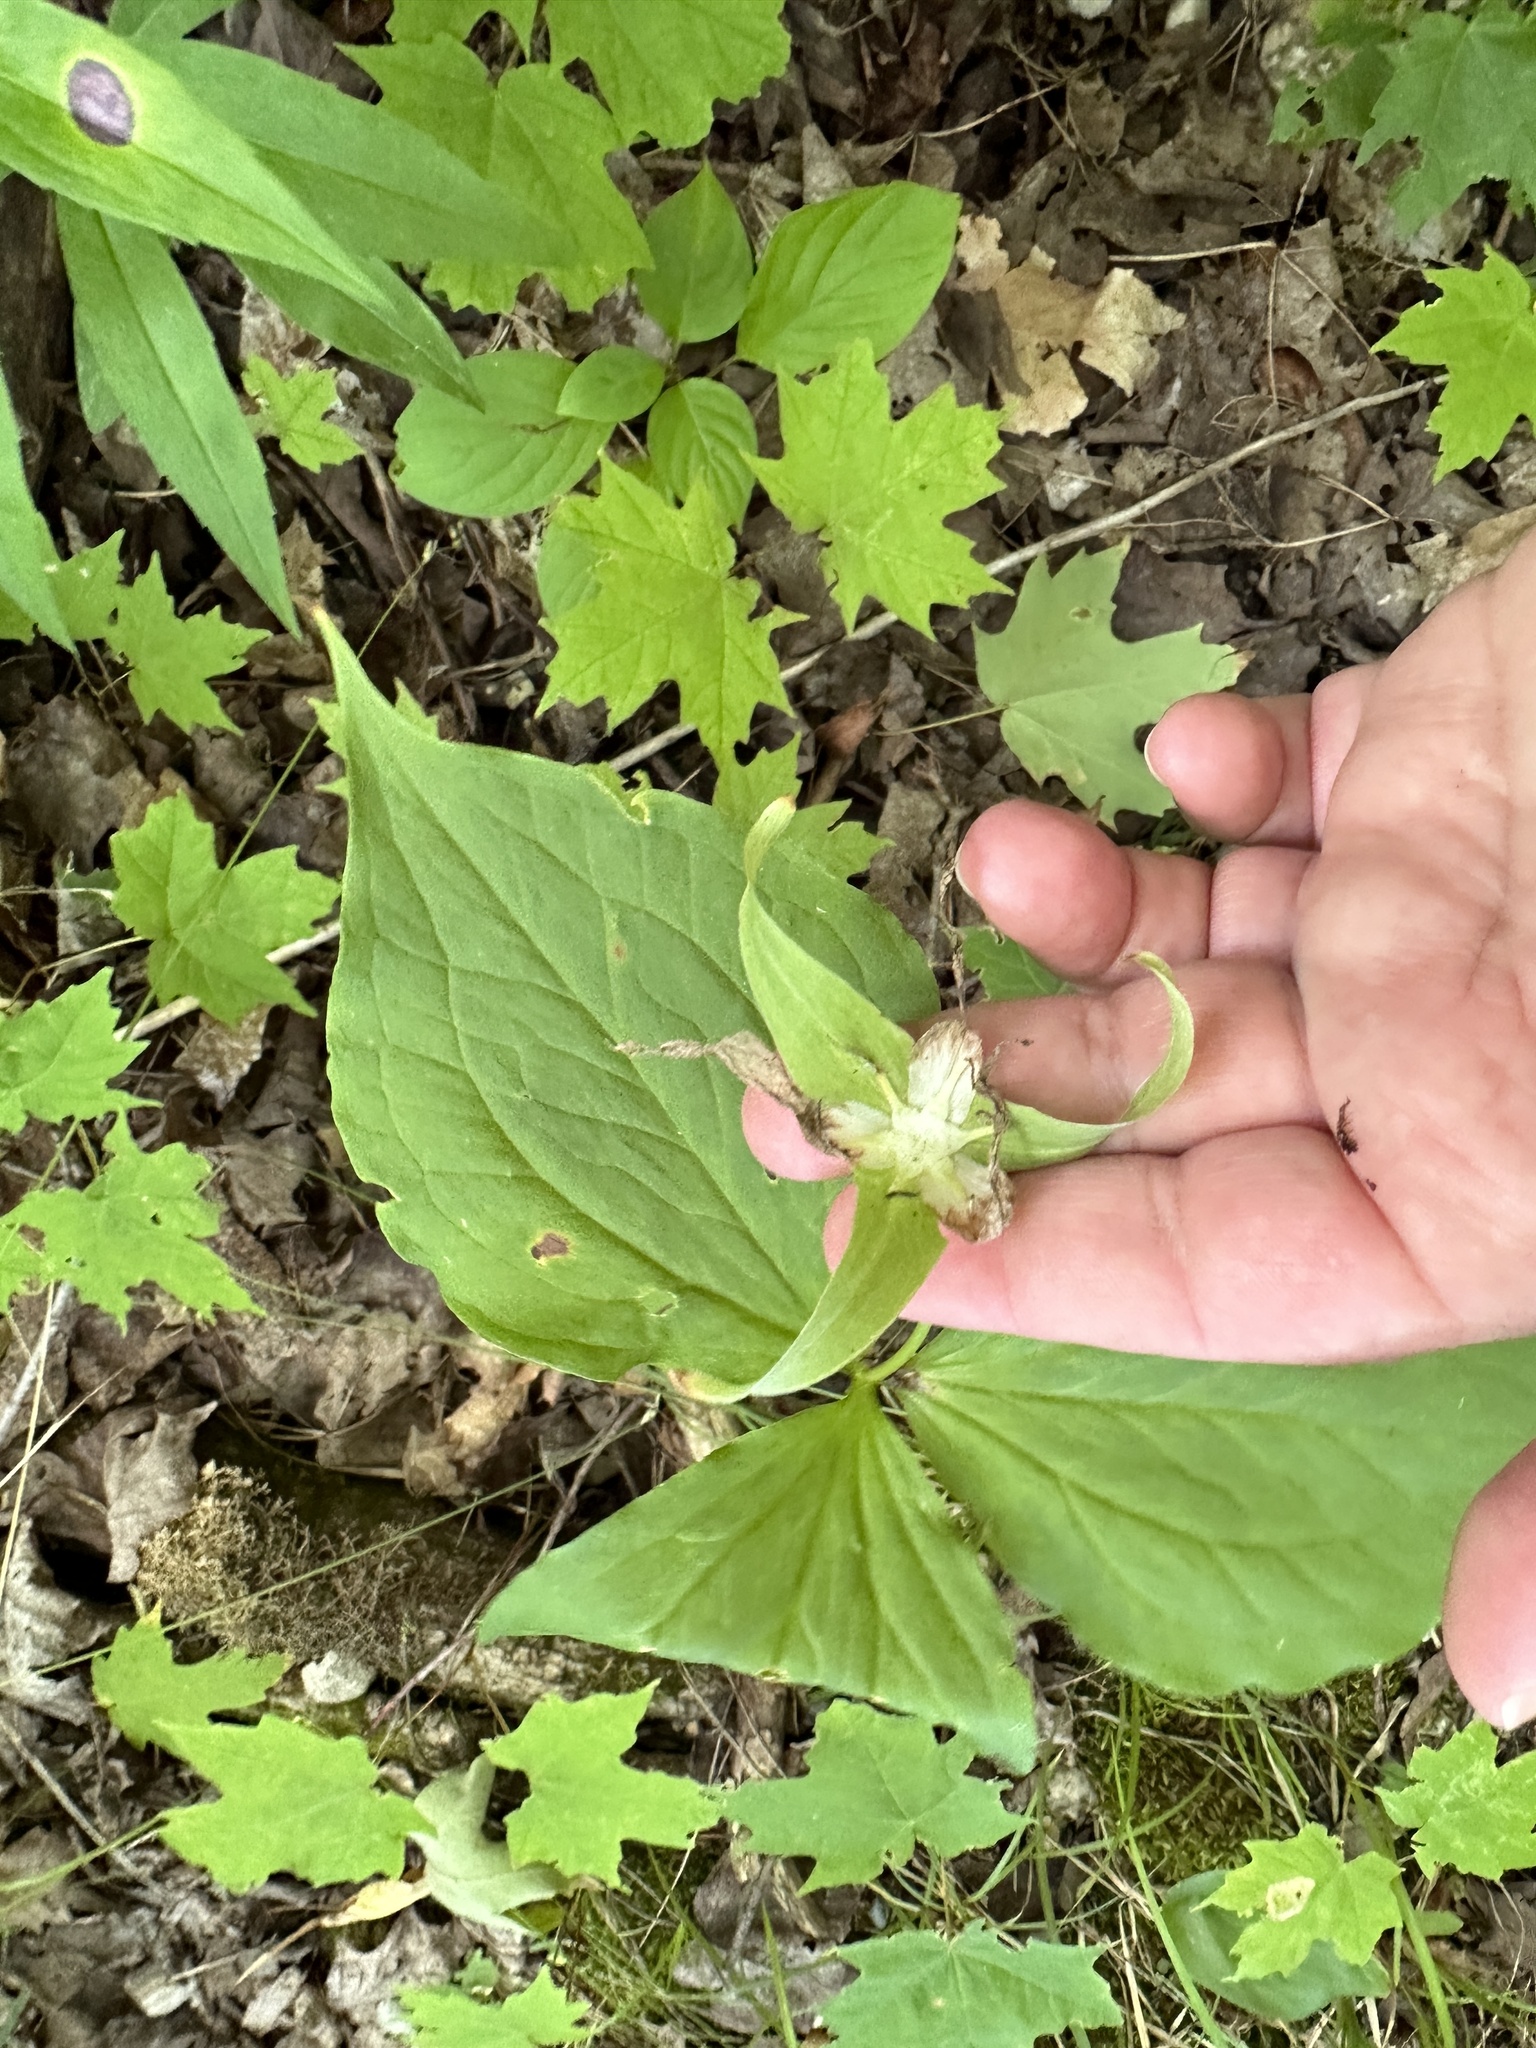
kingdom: Plantae
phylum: Tracheophyta
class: Liliopsida
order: Liliales
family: Melanthiaceae
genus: Trillium
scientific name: Trillium grandiflorum
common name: Great white trillium
